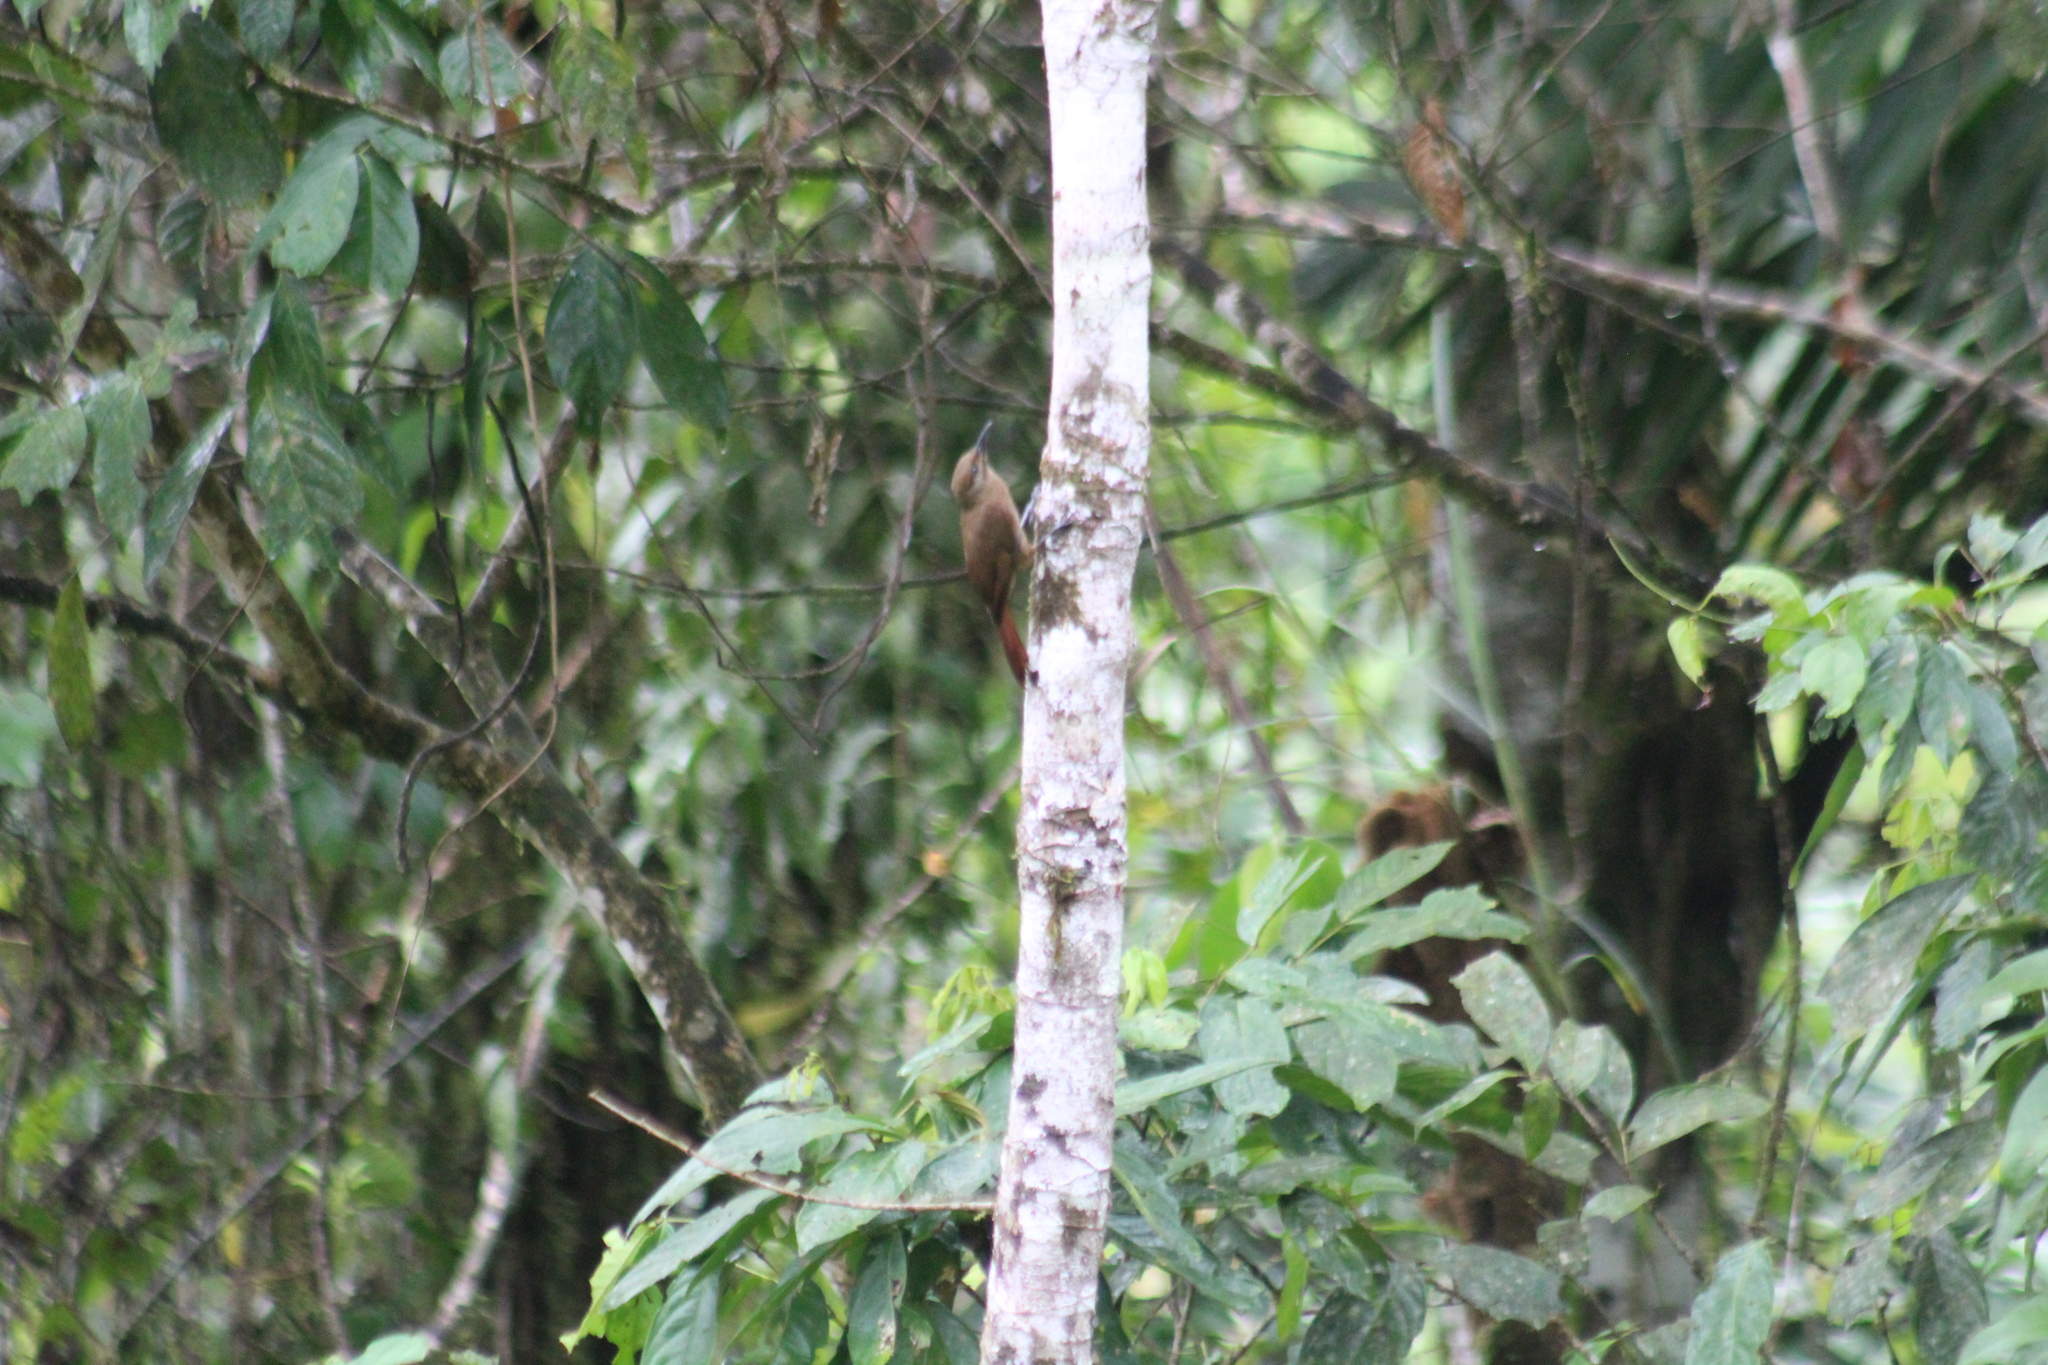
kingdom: Animalia
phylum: Chordata
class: Aves
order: Passeriformes
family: Furnariidae
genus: Dendrocincla
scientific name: Dendrocincla fuliginosa
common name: Plain-brown woodcreeper
